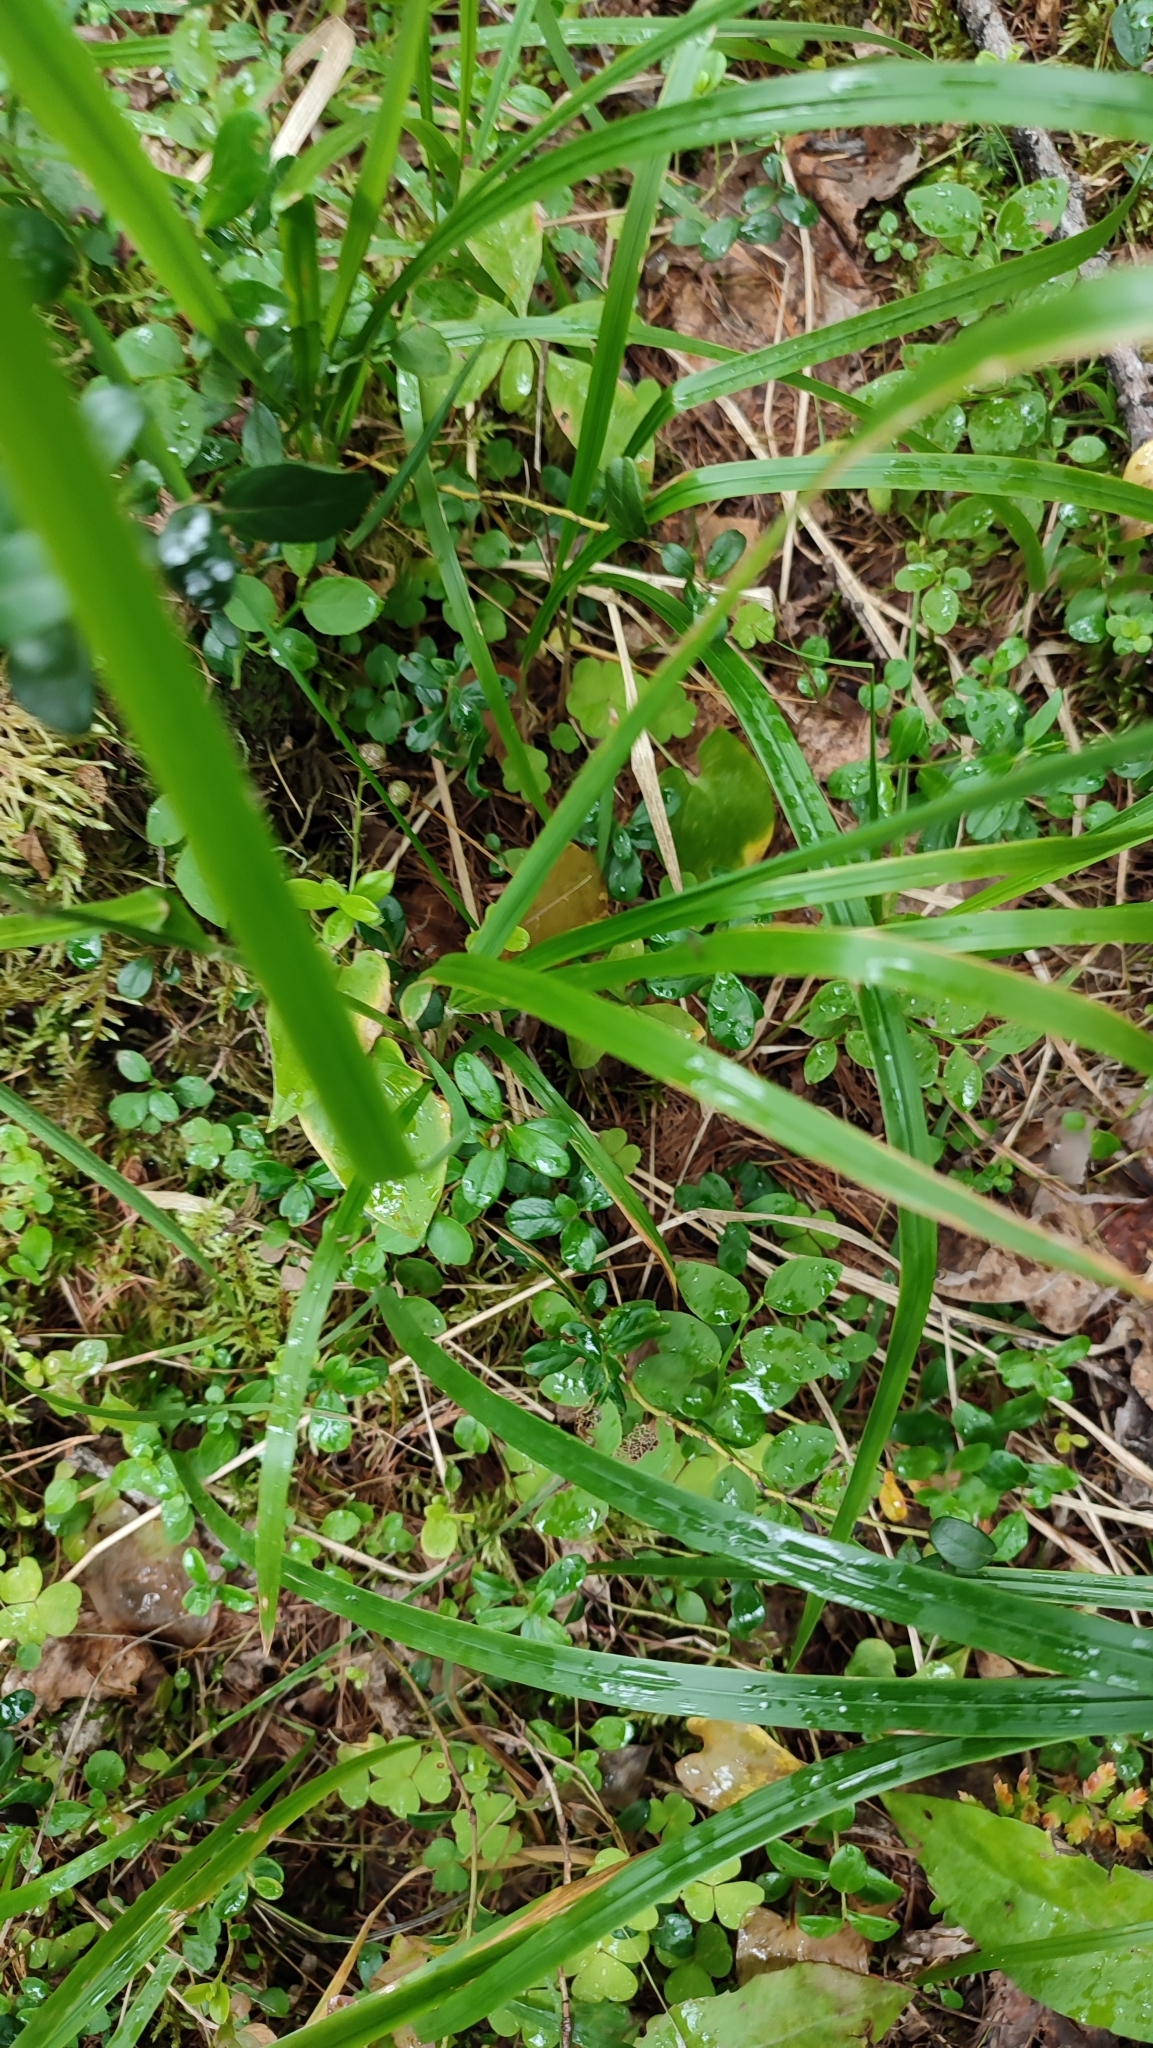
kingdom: Plantae
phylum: Tracheophyta
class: Liliopsida
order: Poales
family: Poaceae
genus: Calamagrostis
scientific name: Calamagrostis arundinacea
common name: Metskastik
